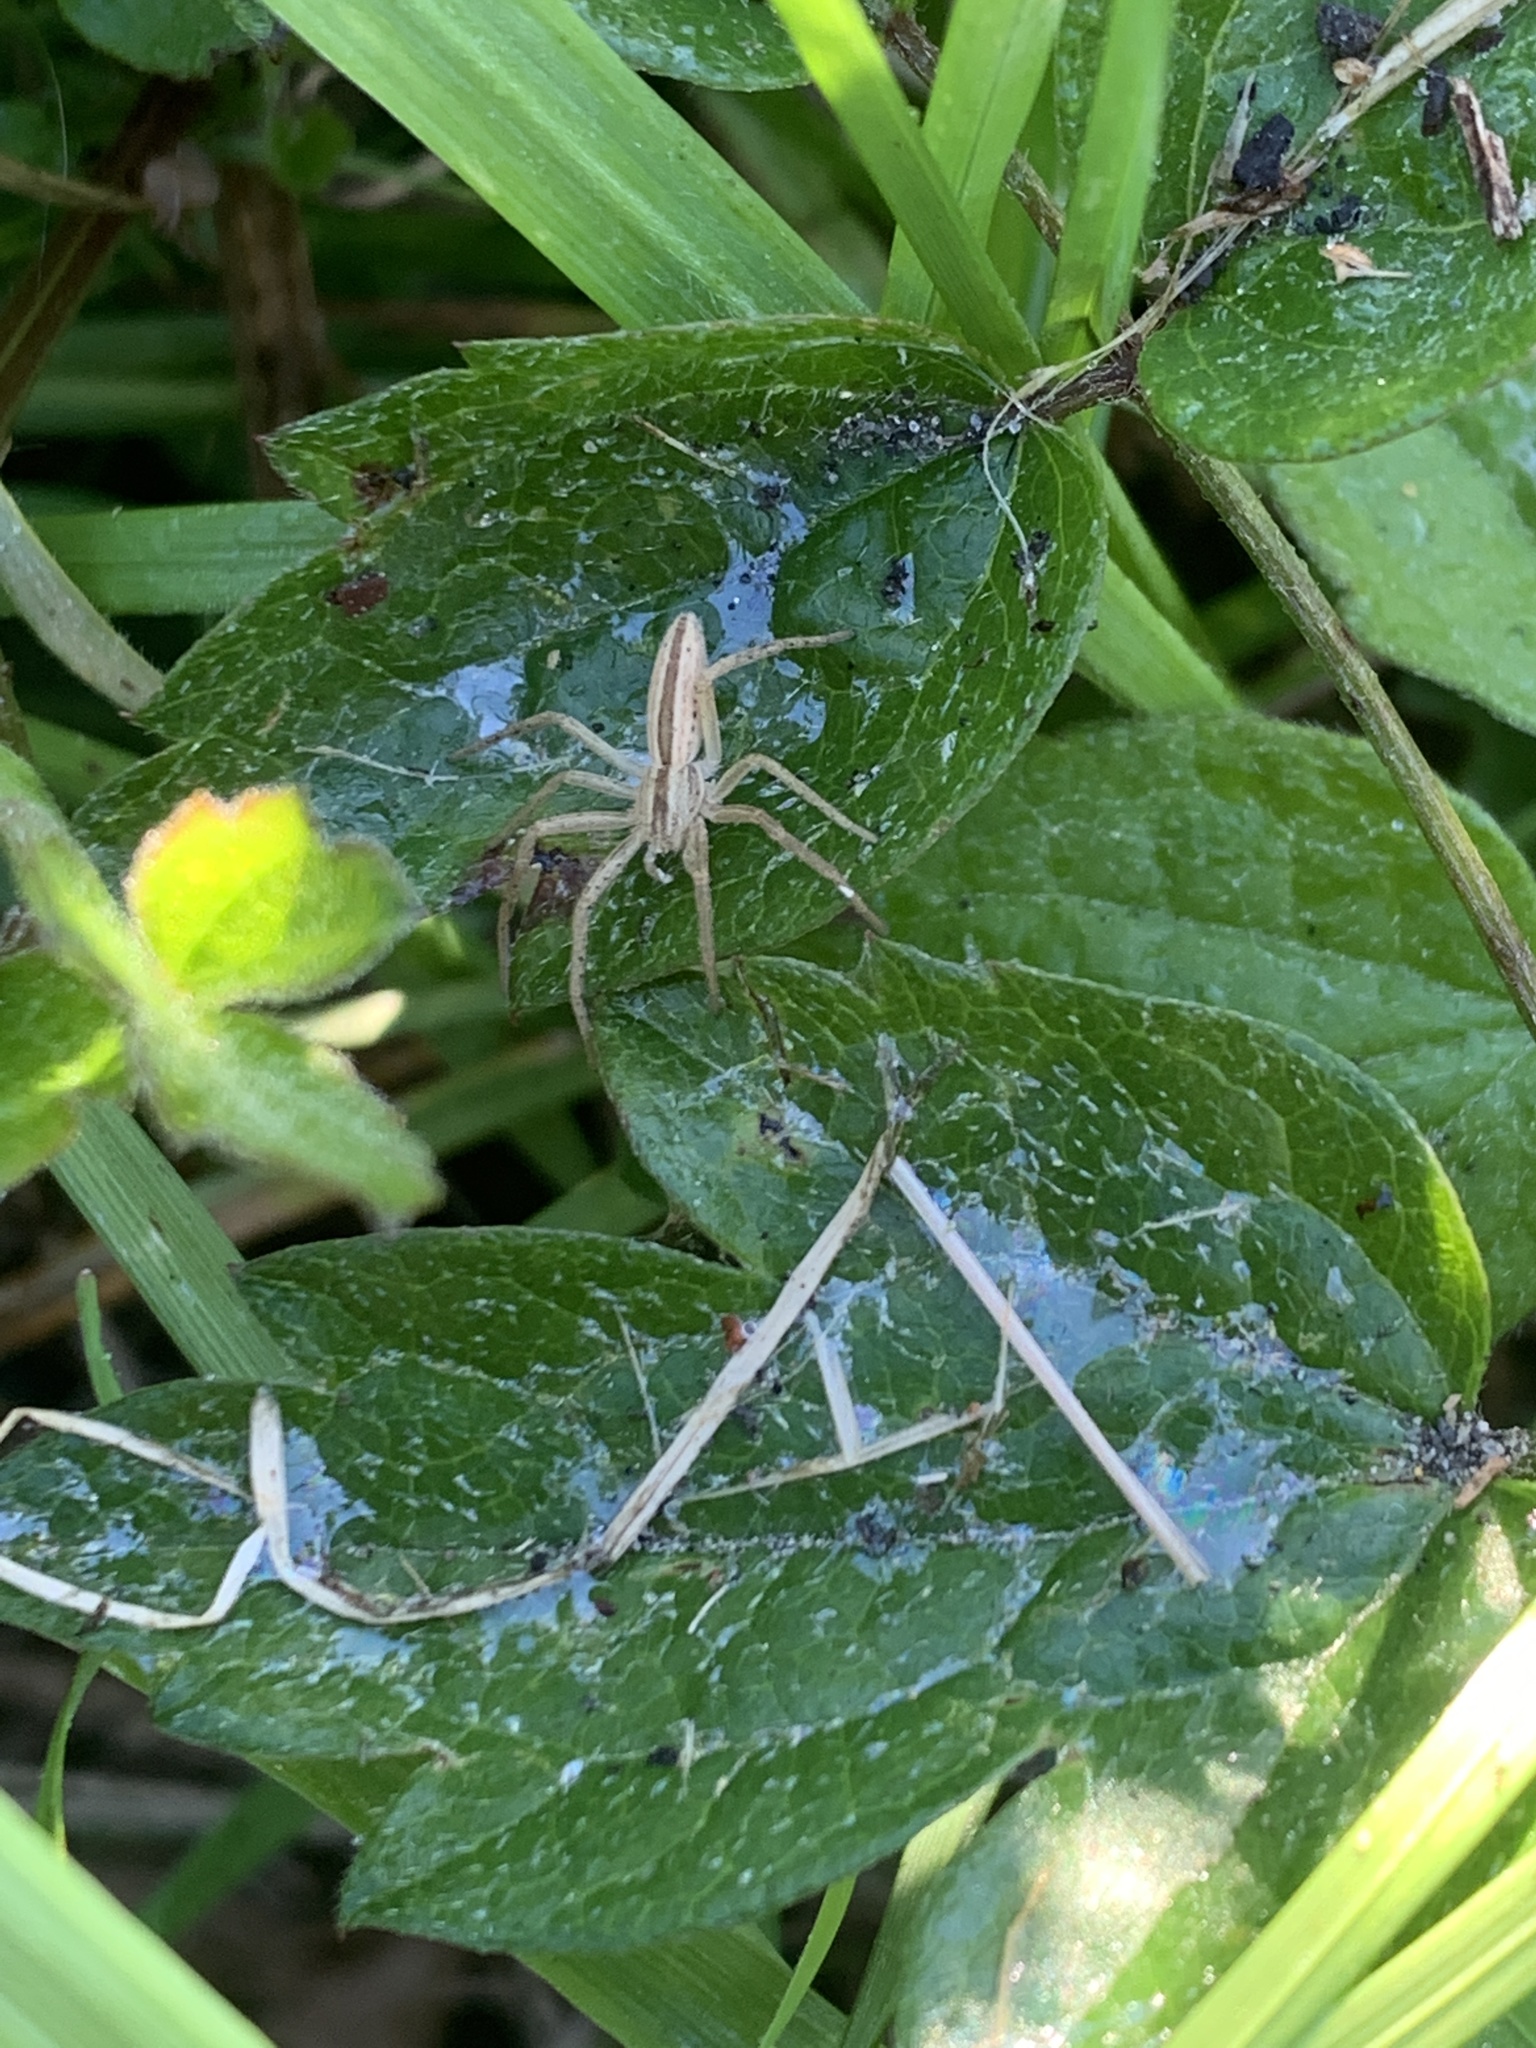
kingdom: Animalia
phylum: Arthropoda
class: Arachnida
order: Araneae
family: Philodromidae
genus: Tibellus
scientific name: Tibellus oblongus
